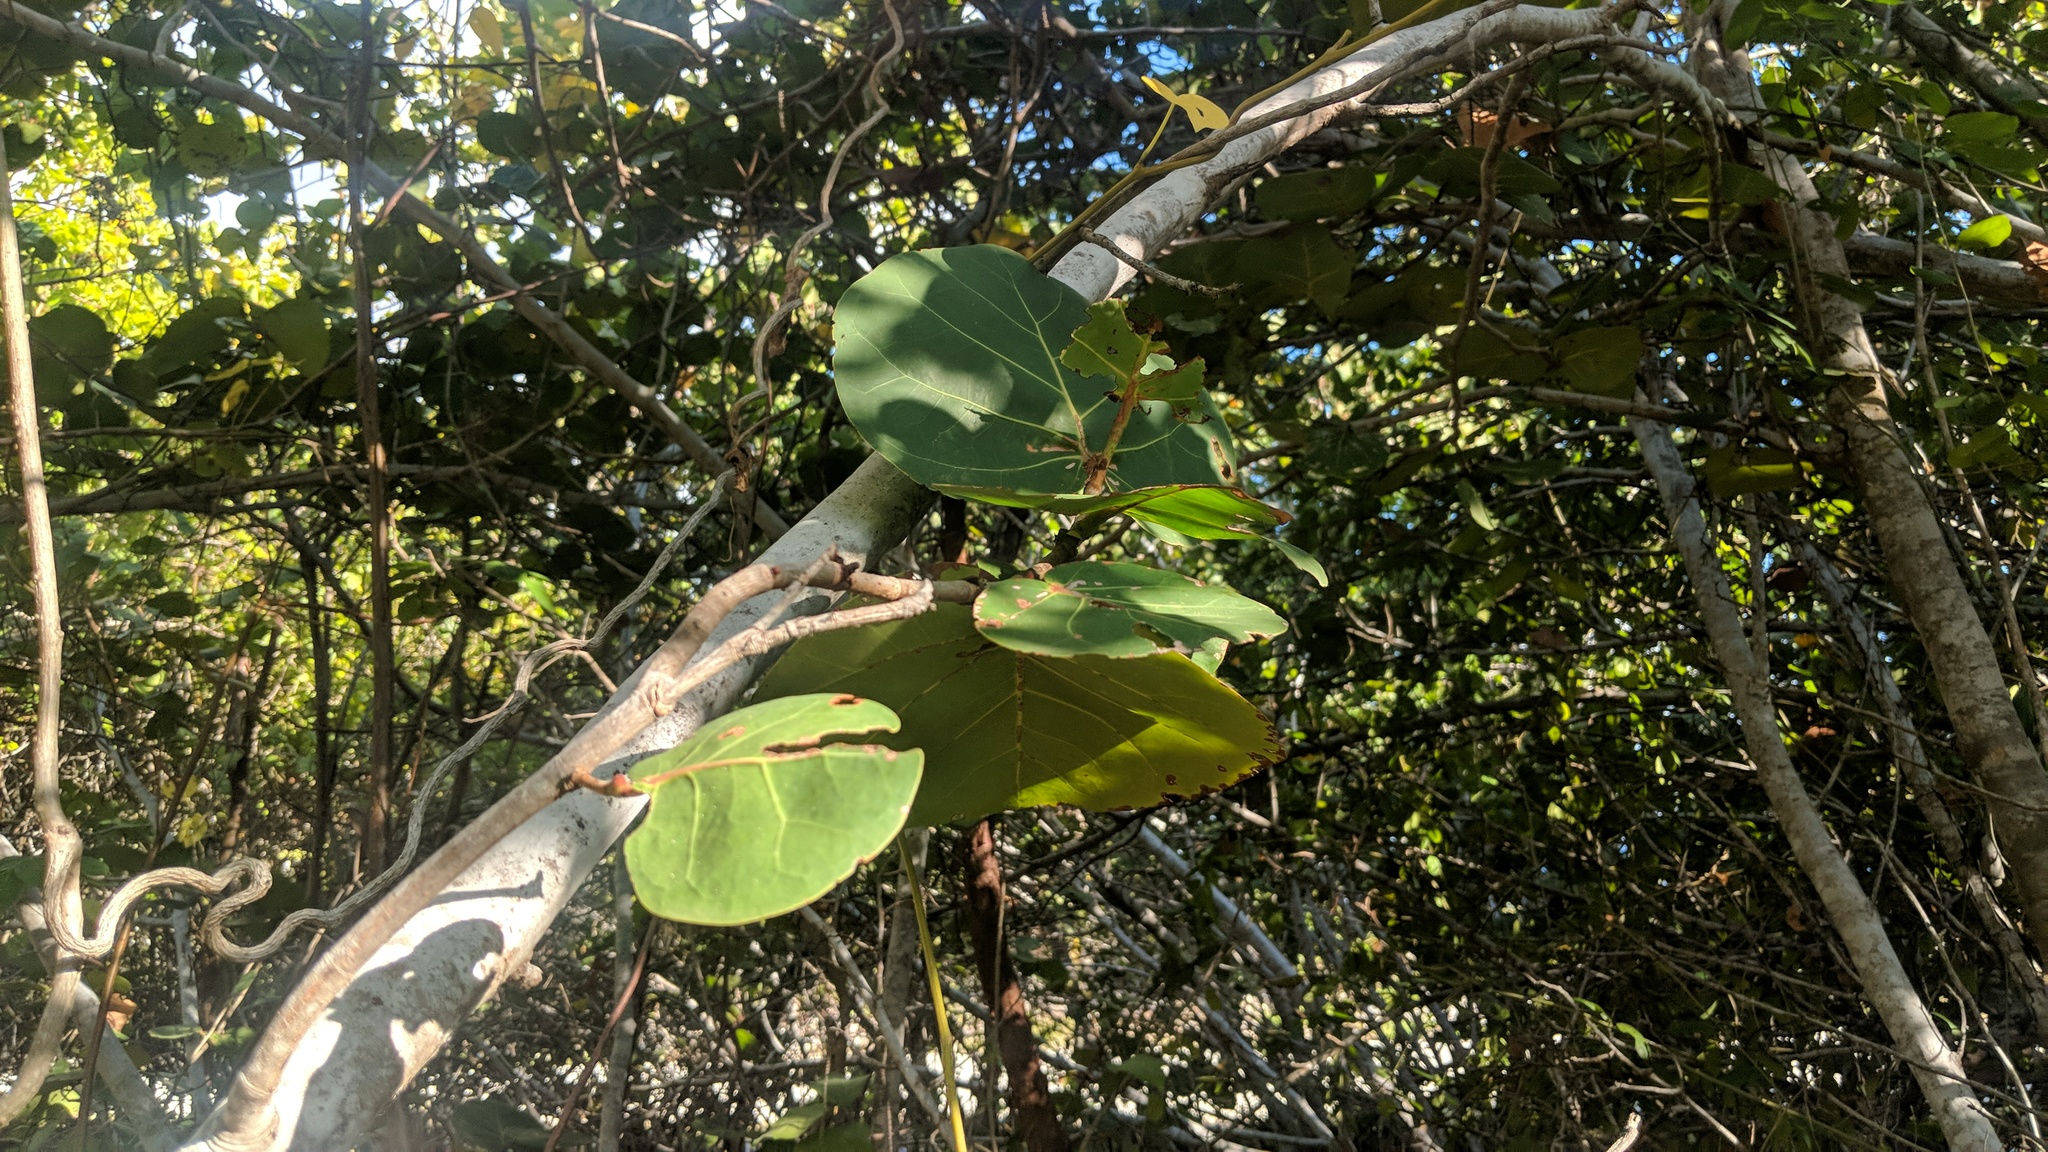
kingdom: Plantae
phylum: Tracheophyta
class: Magnoliopsida
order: Caryophyllales
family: Polygonaceae
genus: Coccoloba
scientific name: Coccoloba uvifera
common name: Seagrape
